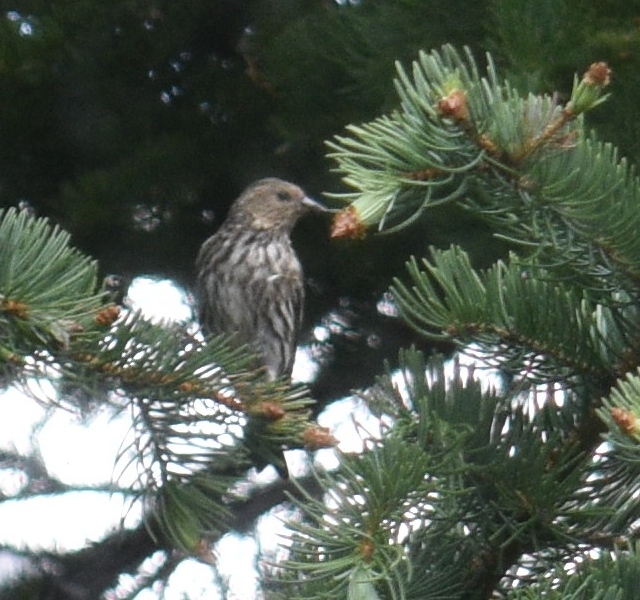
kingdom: Animalia
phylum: Chordata
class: Aves
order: Passeriformes
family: Fringillidae
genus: Spinus
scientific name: Spinus pinus
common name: Pine siskin
